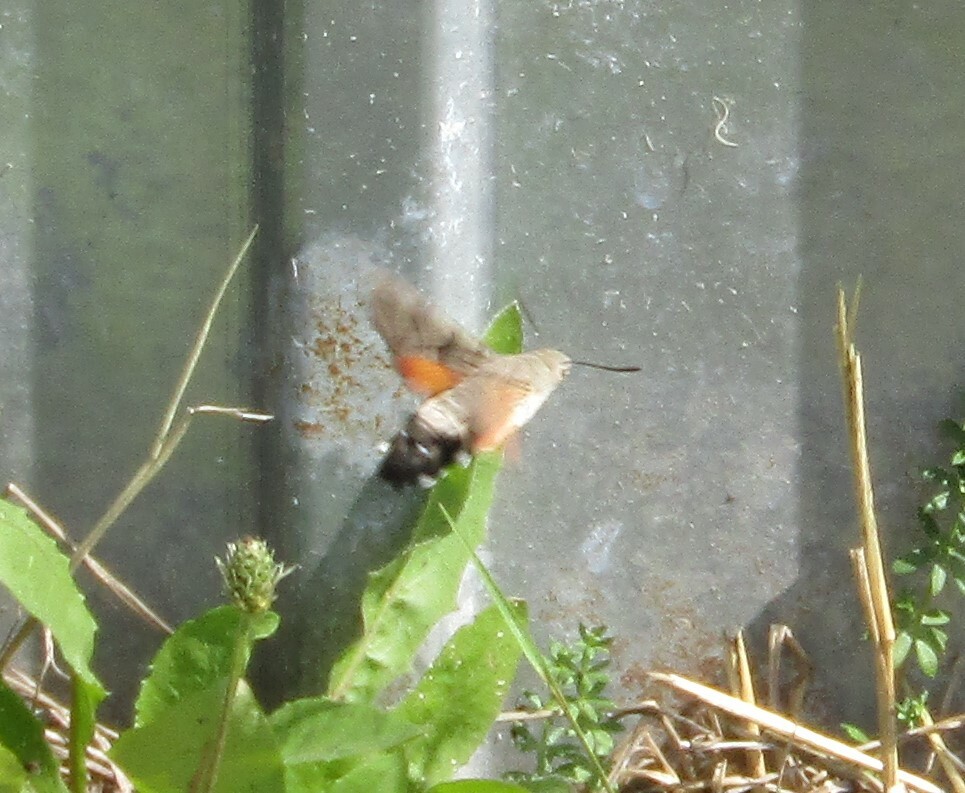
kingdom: Animalia
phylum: Arthropoda
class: Insecta
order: Lepidoptera
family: Sphingidae
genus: Macroglossum
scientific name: Macroglossum stellatarum
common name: Humming-bird hawk-moth
